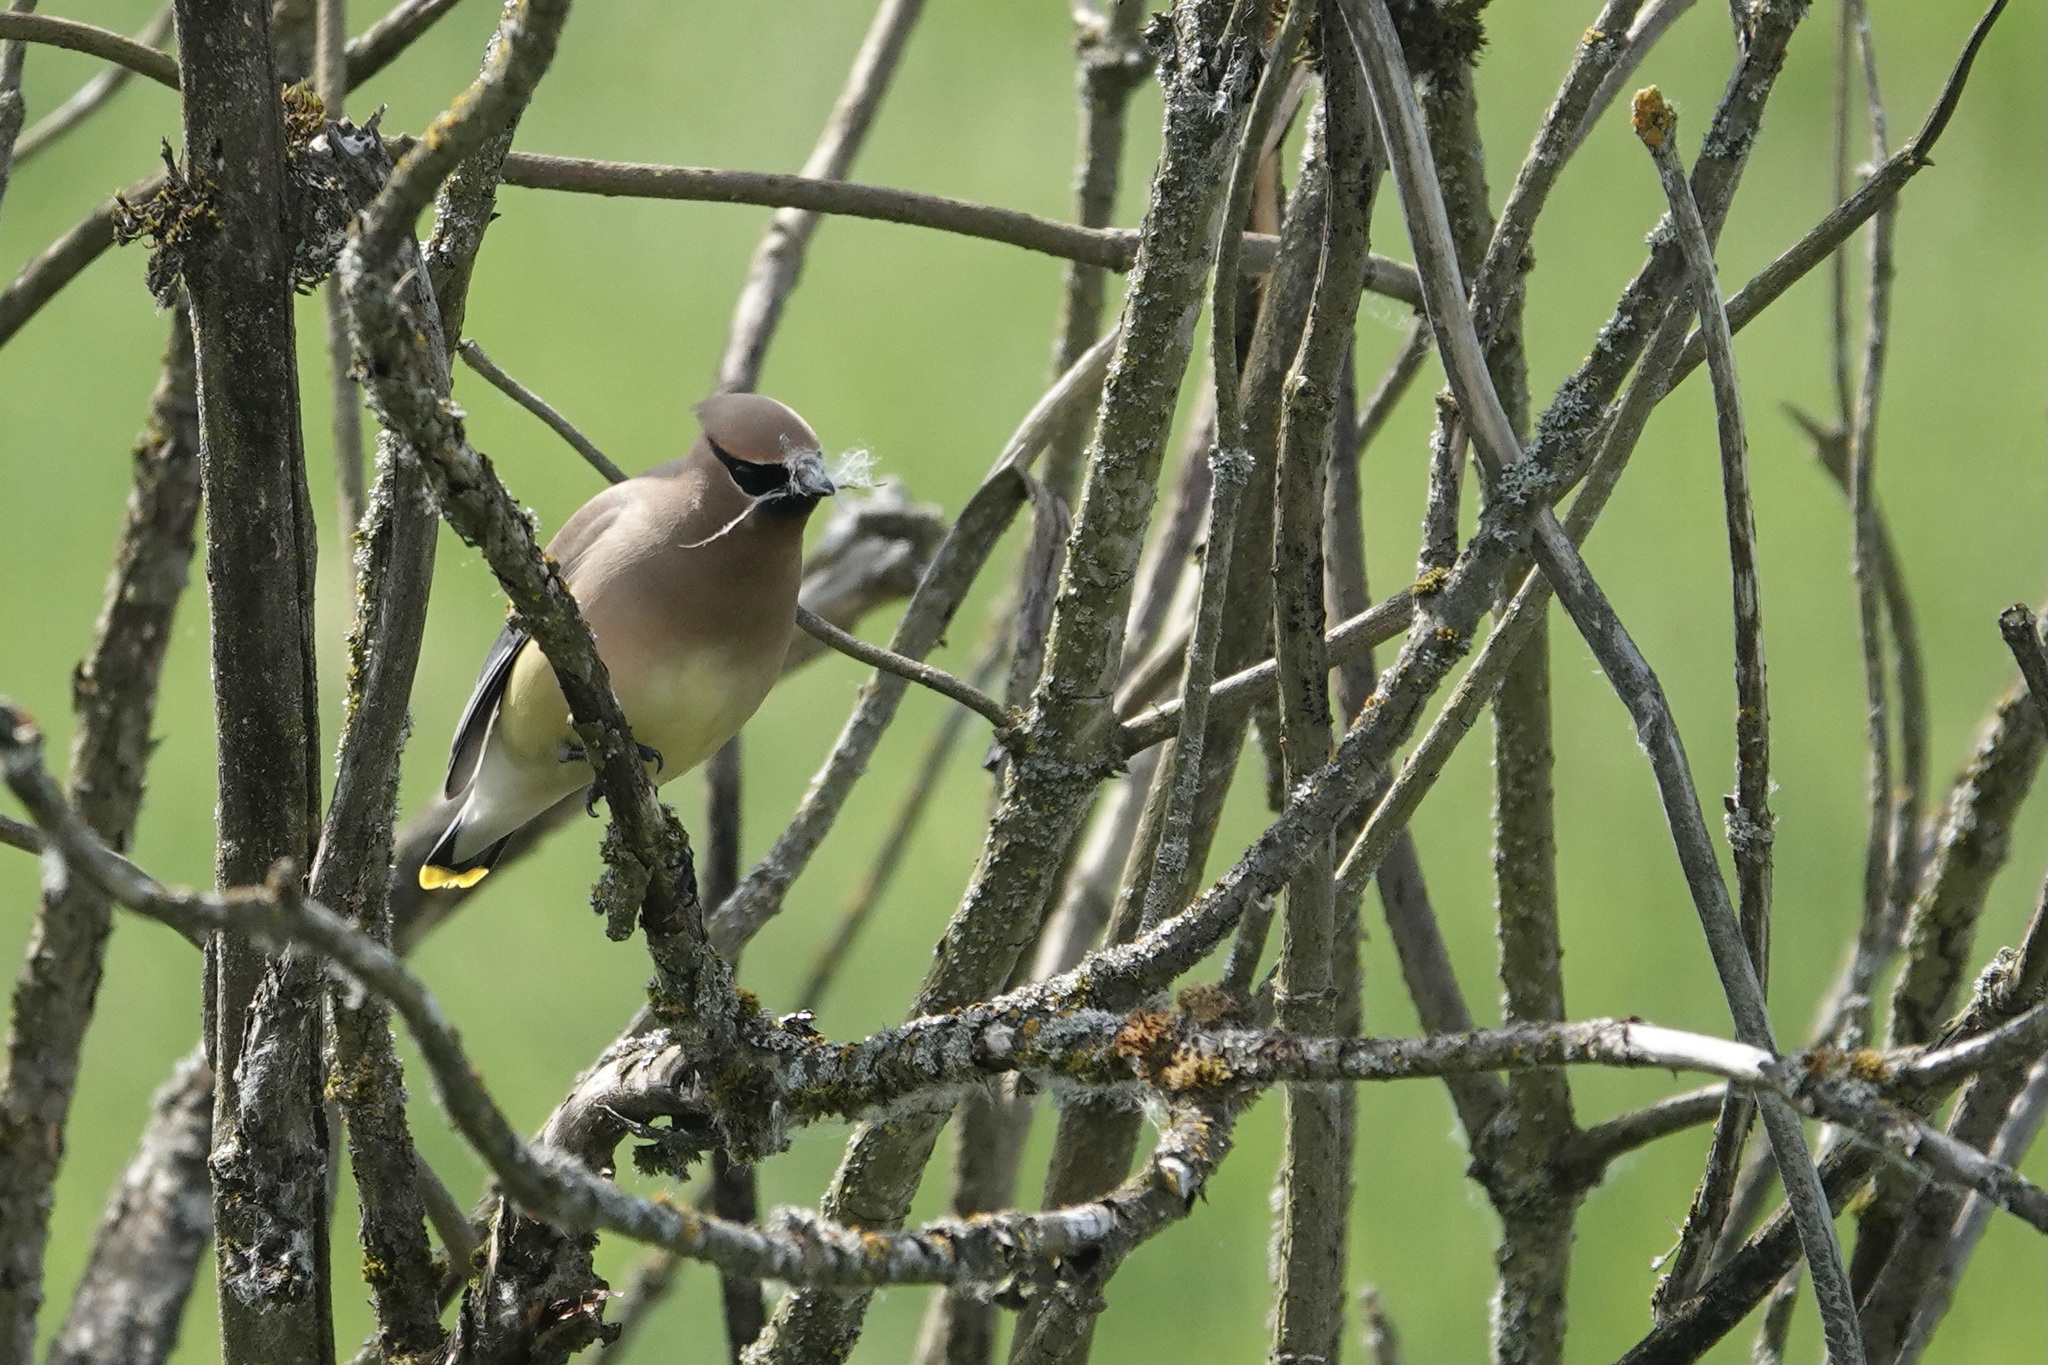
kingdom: Animalia
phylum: Chordata
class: Aves
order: Passeriformes
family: Bombycillidae
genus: Bombycilla
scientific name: Bombycilla cedrorum
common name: Cedar waxwing
